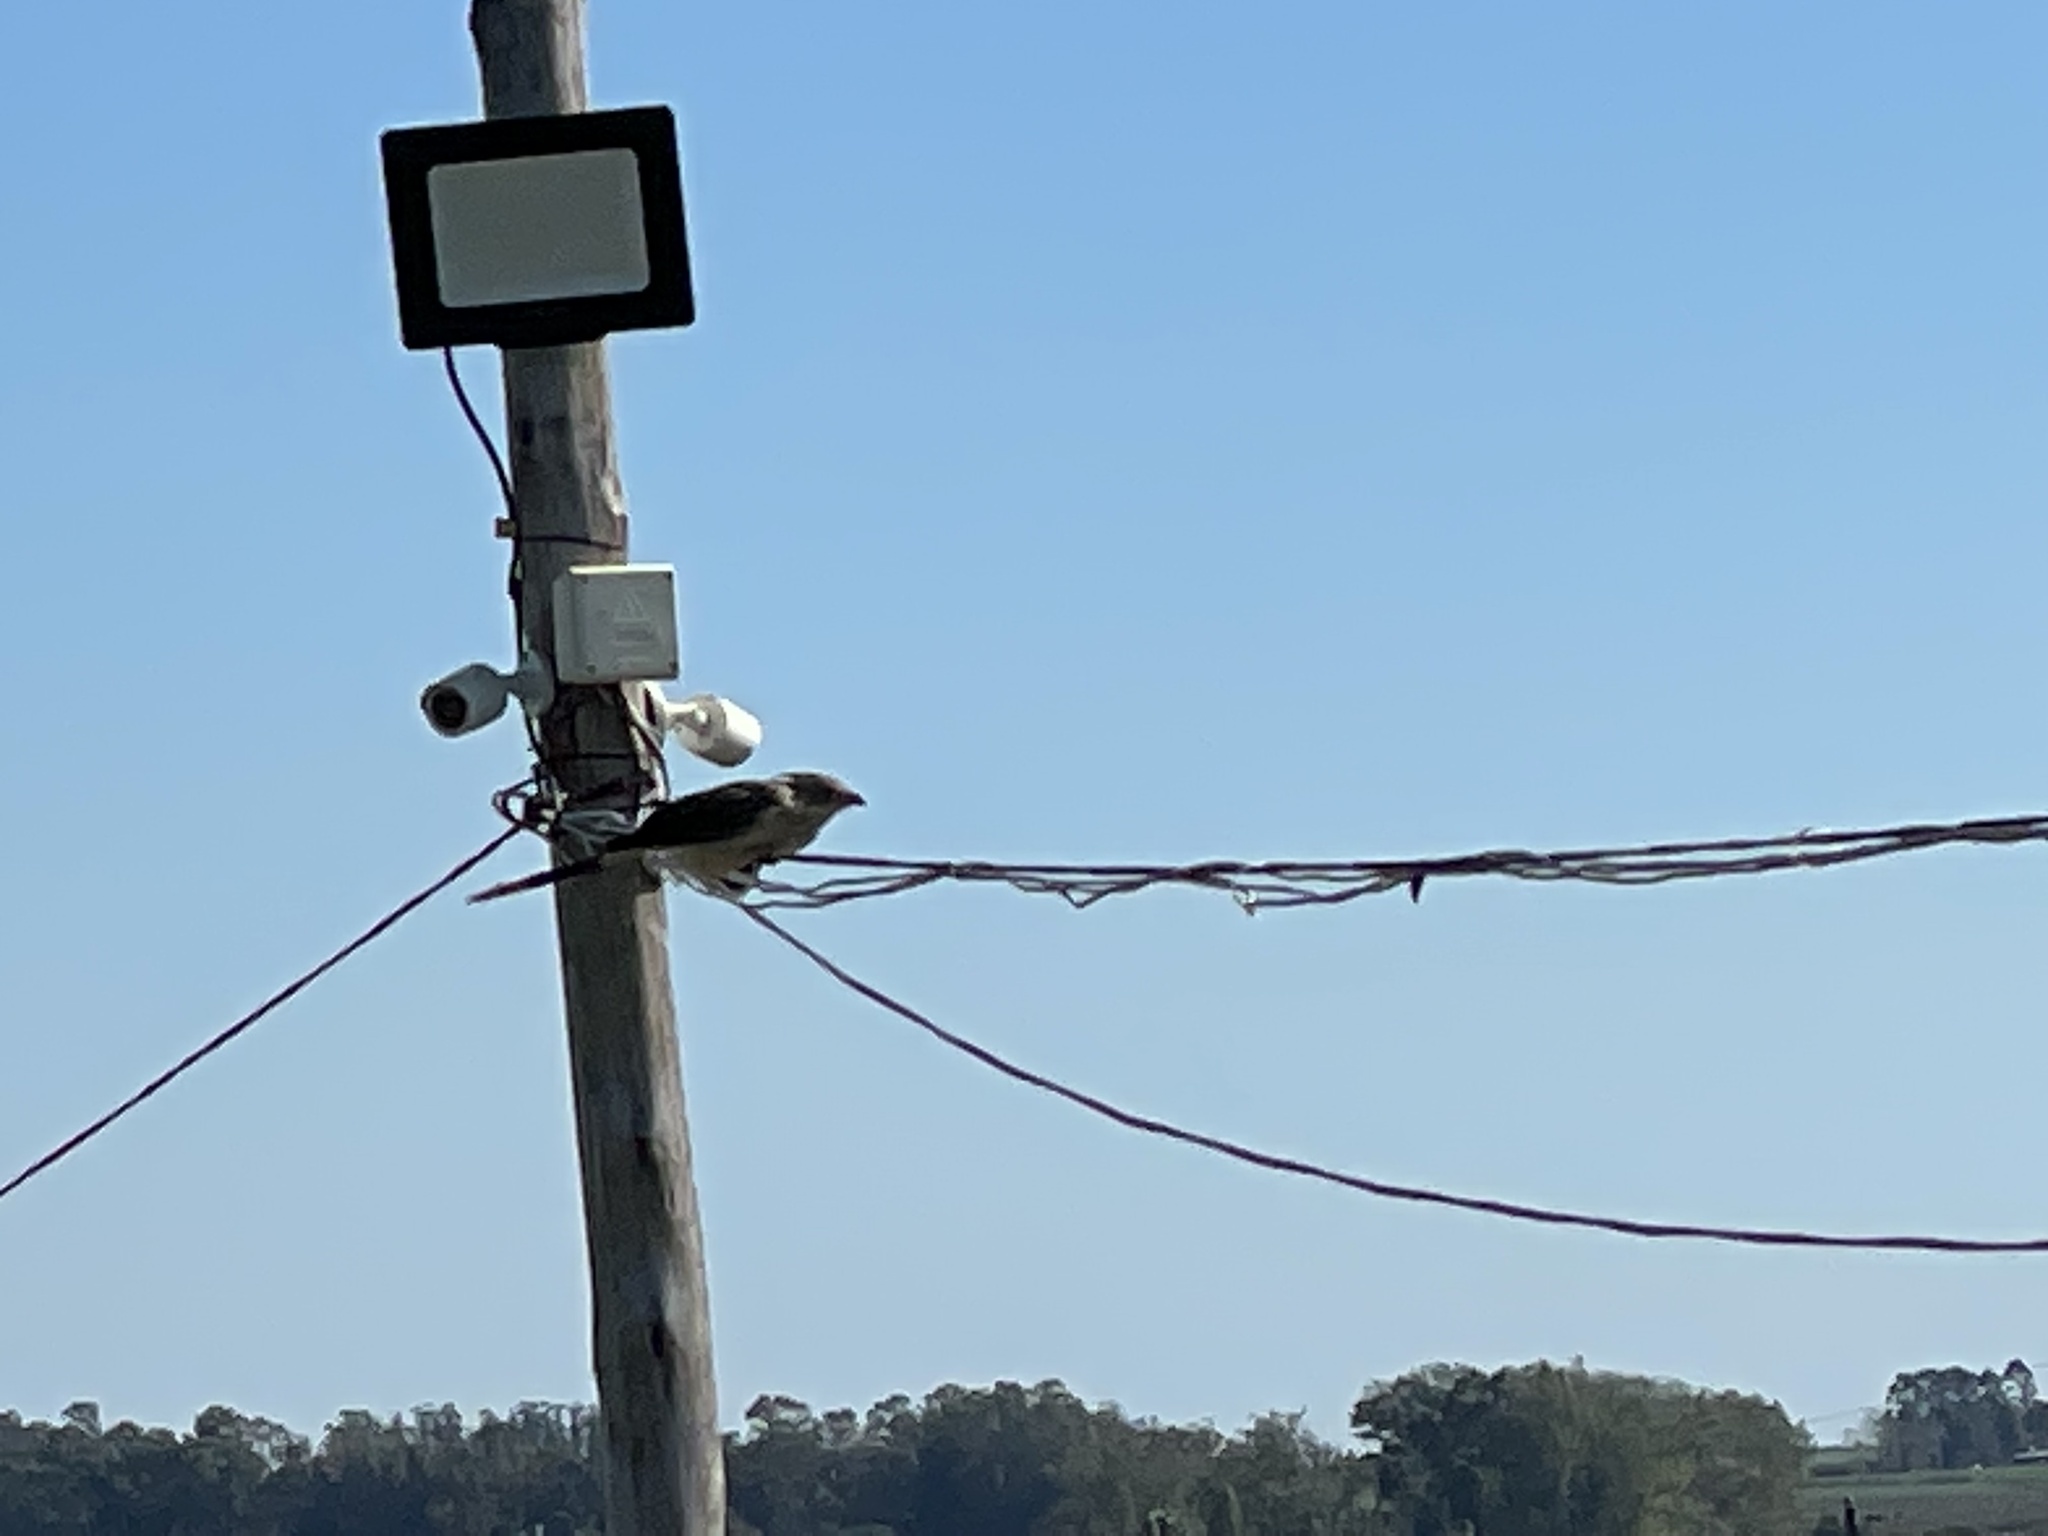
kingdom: Animalia
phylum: Chordata
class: Aves
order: Cuculiformes
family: Cuculidae
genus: Guira
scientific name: Guira guira
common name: Guira cuckoo
